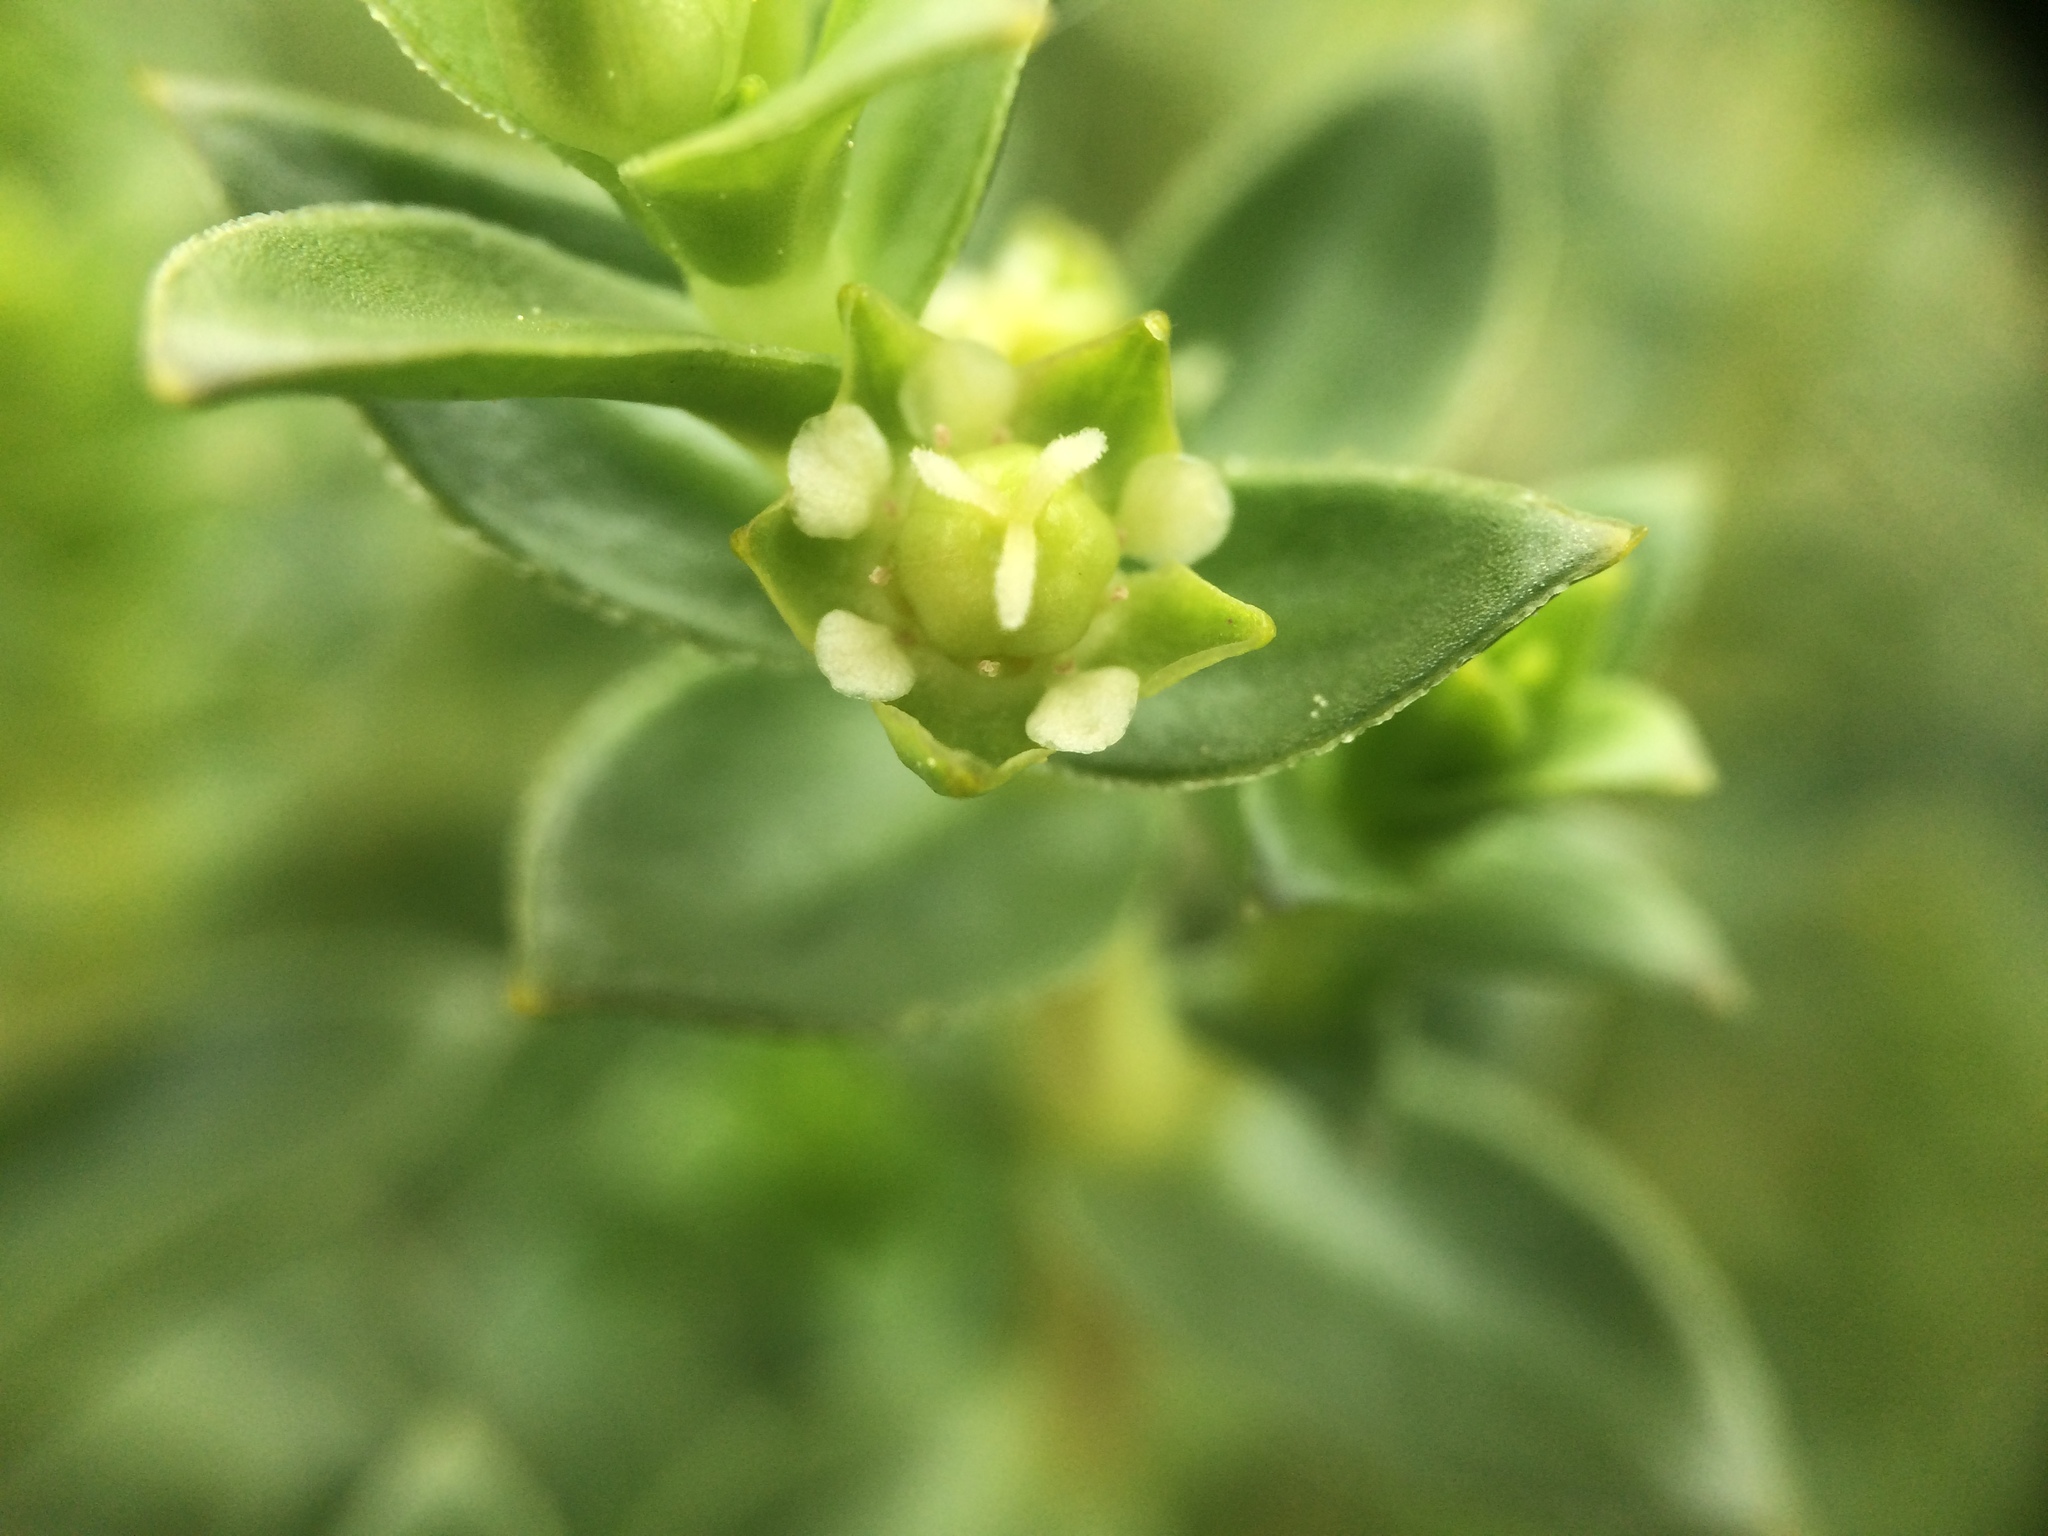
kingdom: Plantae
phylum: Tracheophyta
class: Magnoliopsida
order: Caryophyllales
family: Caryophyllaceae
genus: Honckenya
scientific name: Honckenya peploides
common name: Sea sandwort
